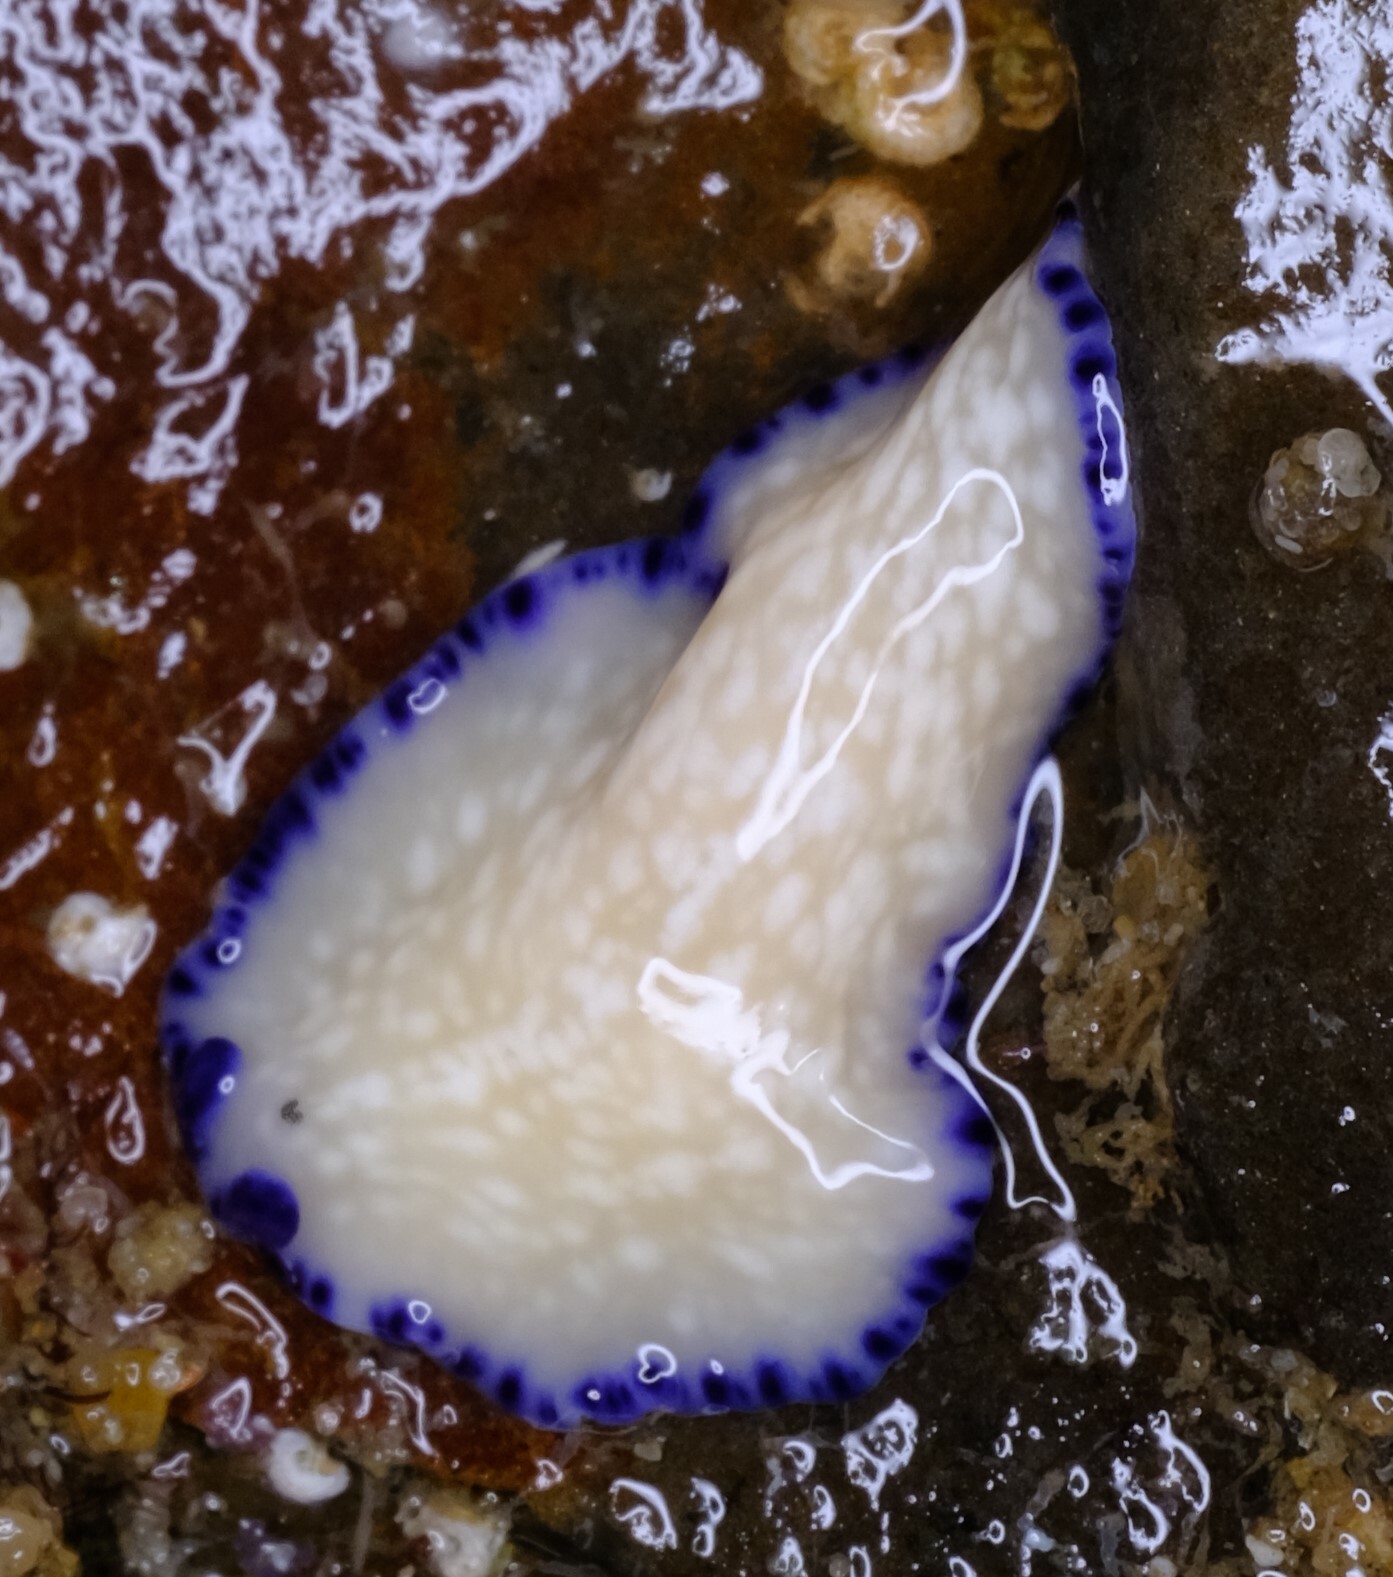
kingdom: Animalia
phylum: Platyhelminthes
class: Turbellaria
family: Pseudocerotidae
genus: Pseudoceros
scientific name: Pseudoceros indicus
